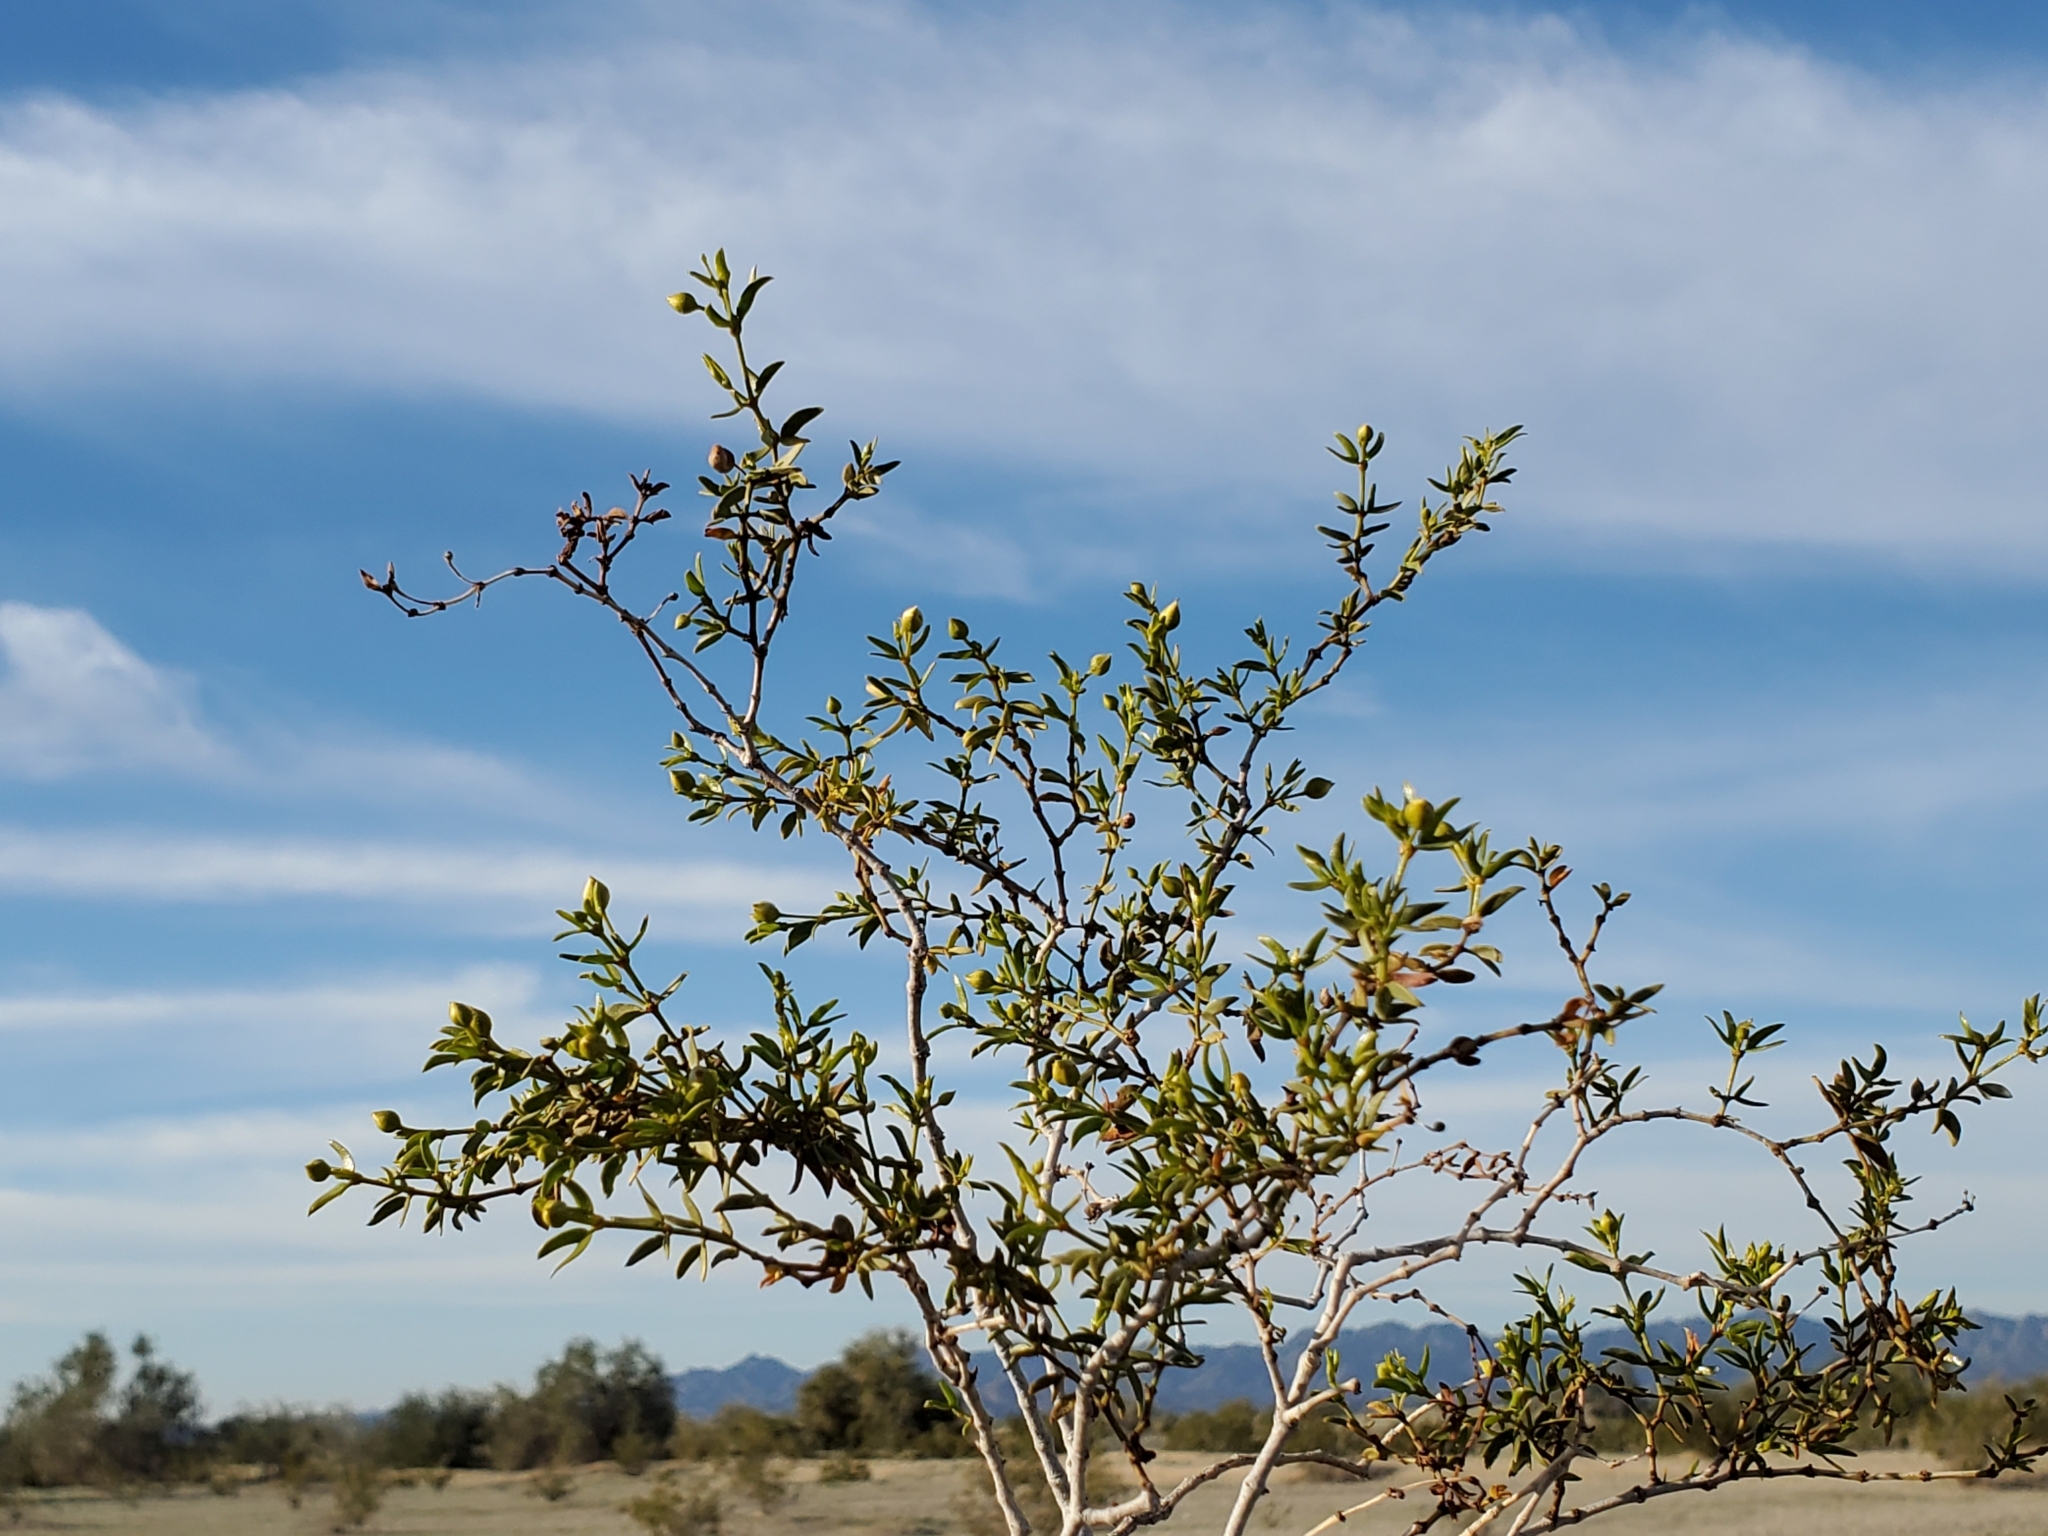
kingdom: Plantae
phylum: Tracheophyta
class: Magnoliopsida
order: Zygophyllales
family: Zygophyllaceae
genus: Larrea
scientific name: Larrea tridentata
